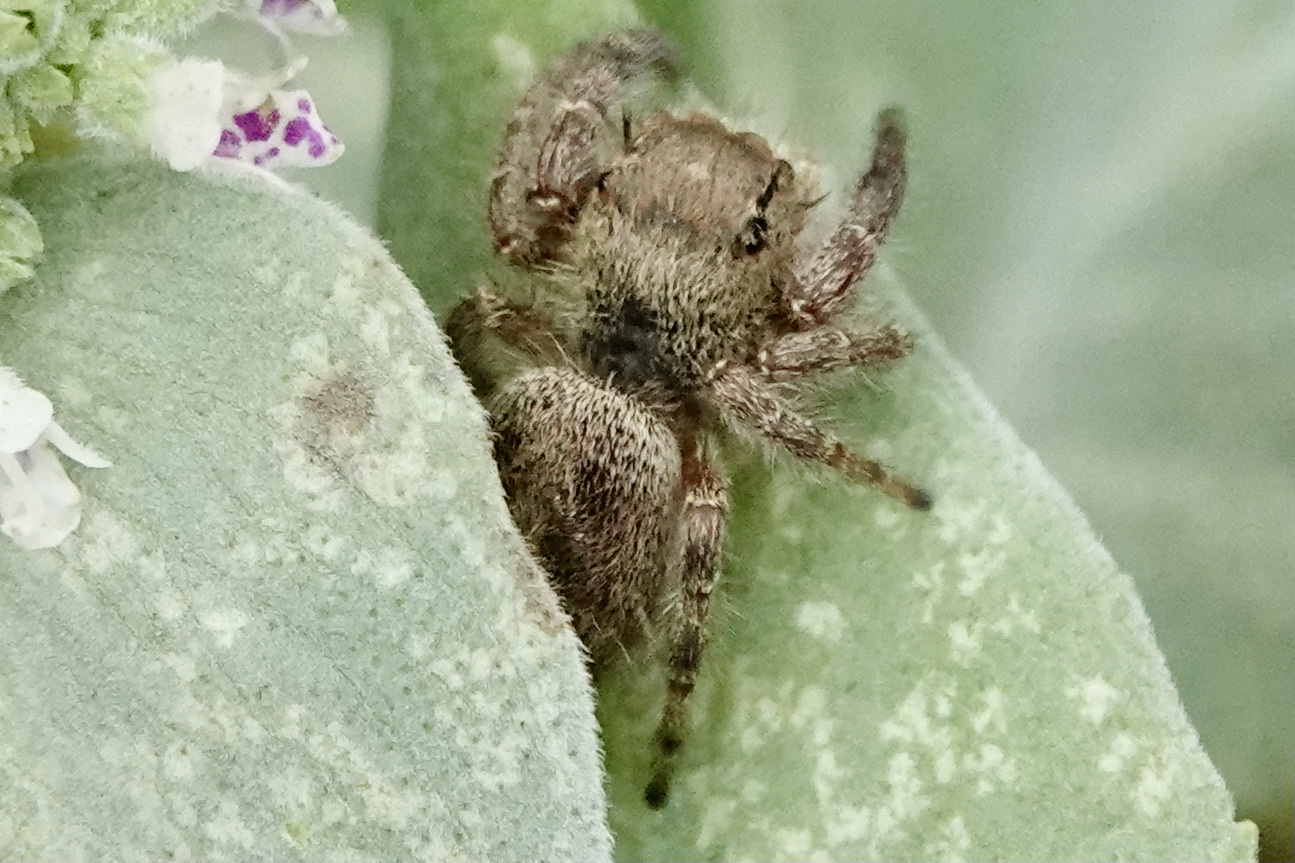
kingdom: Animalia
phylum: Arthropoda
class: Arachnida
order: Araneae
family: Salticidae
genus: Phidippus
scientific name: Phidippus princeps
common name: Grayish jumping spider
